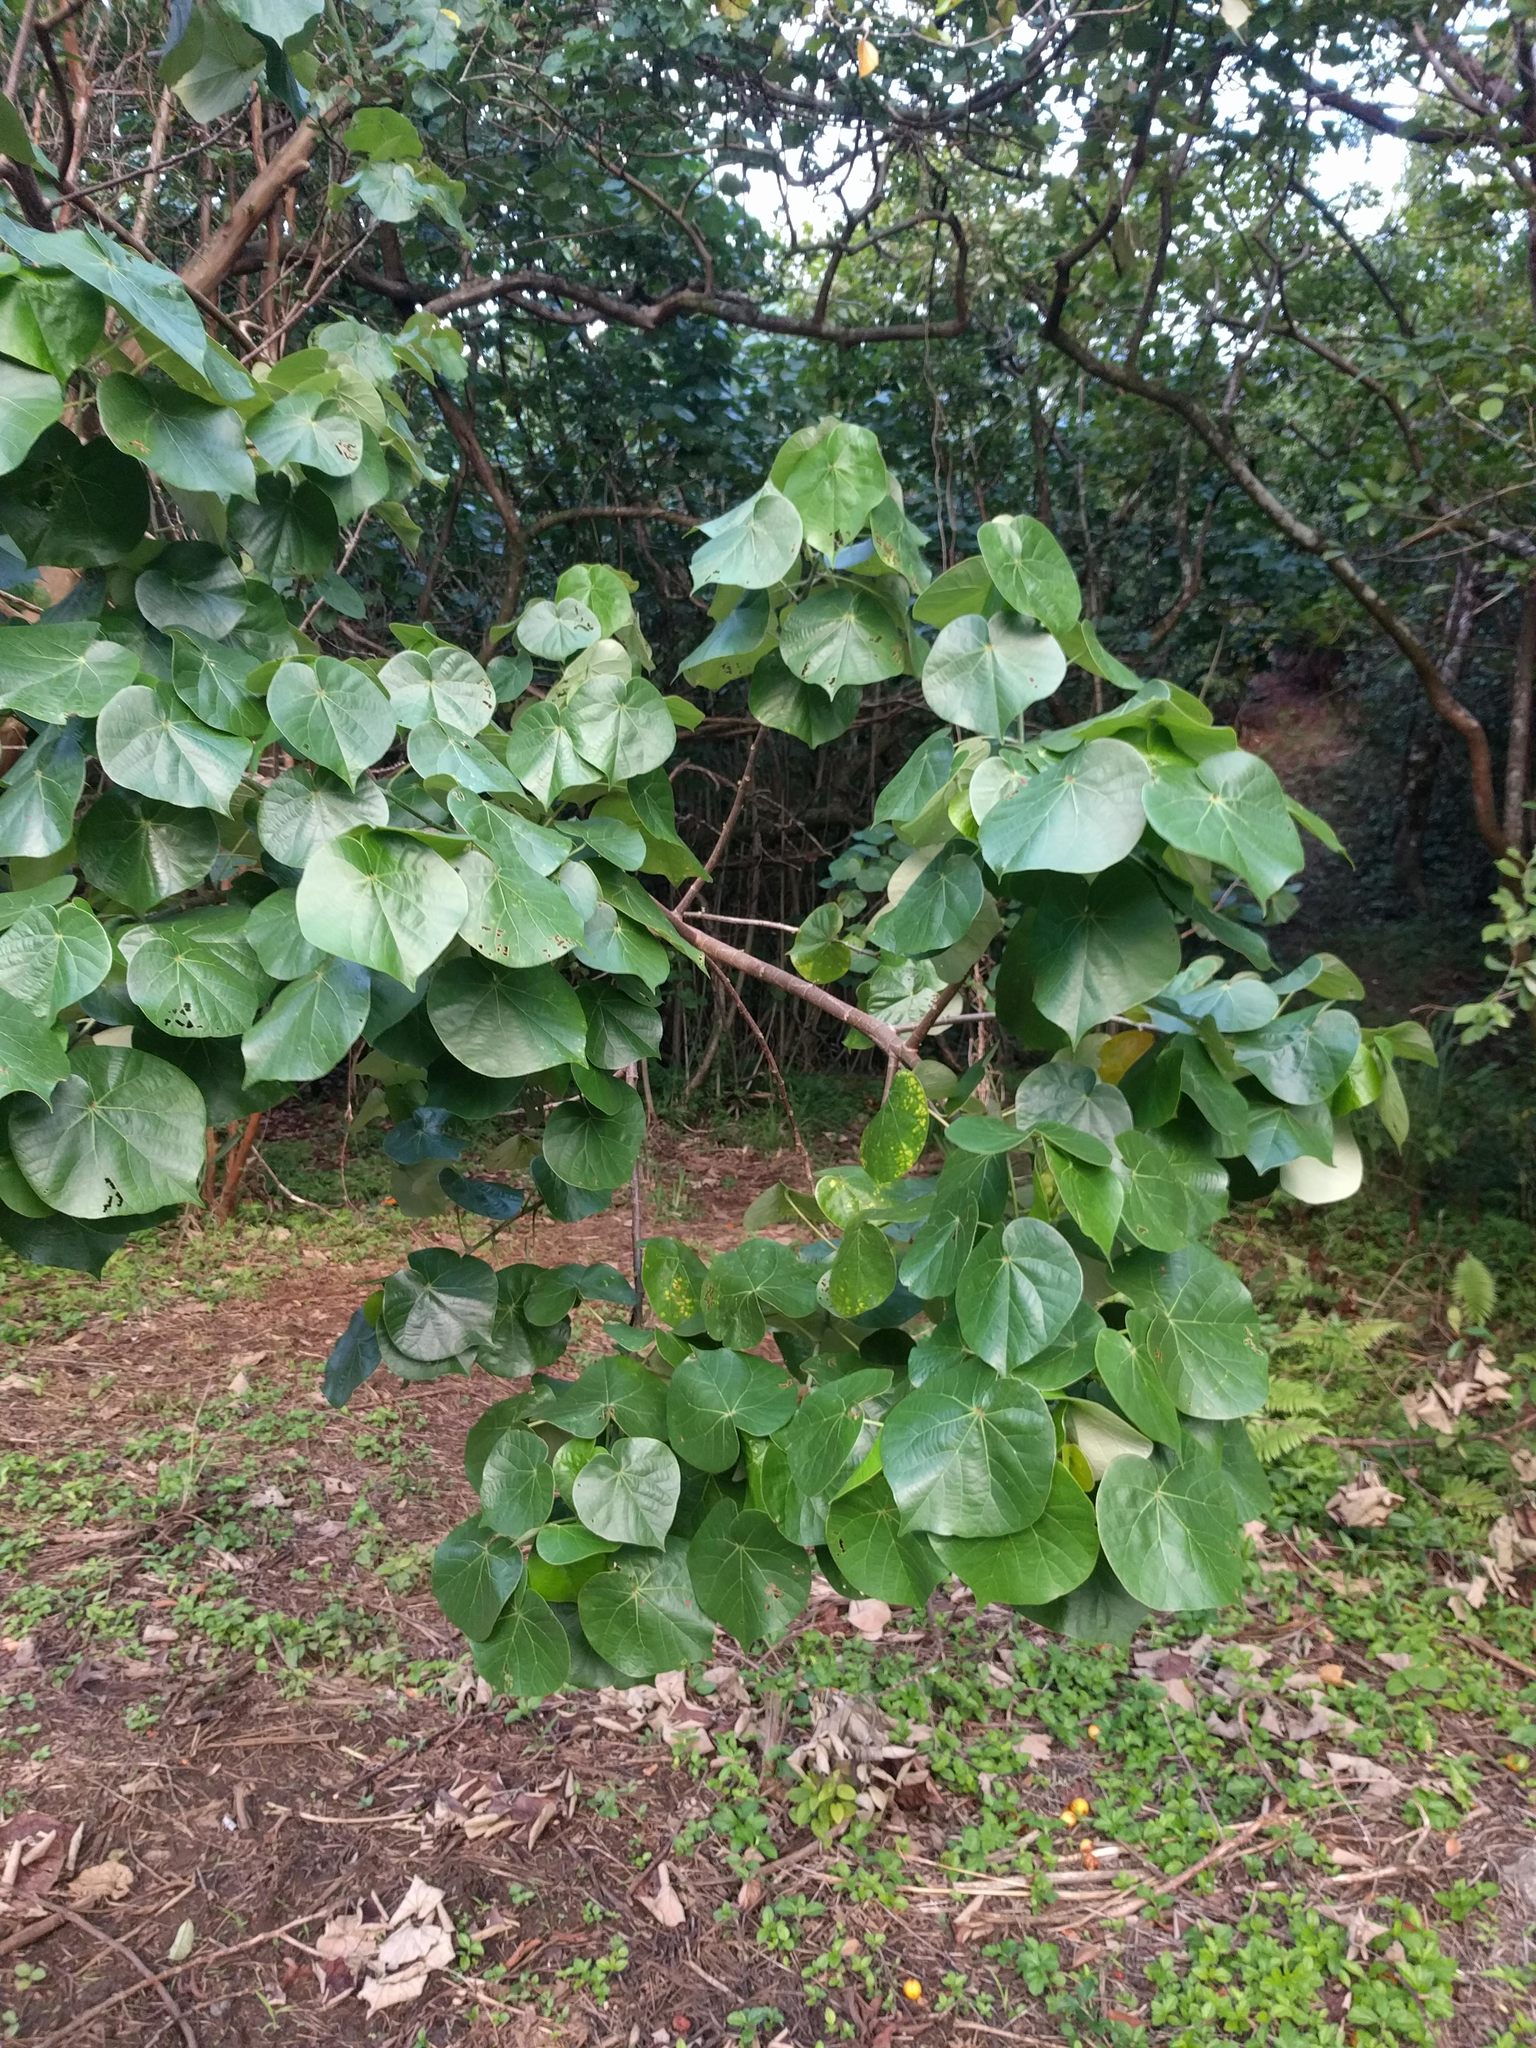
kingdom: Plantae
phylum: Tracheophyta
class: Magnoliopsida
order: Malvales
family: Malvaceae
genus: Talipariti
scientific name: Talipariti tiliaceum
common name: Sea hibiscus
